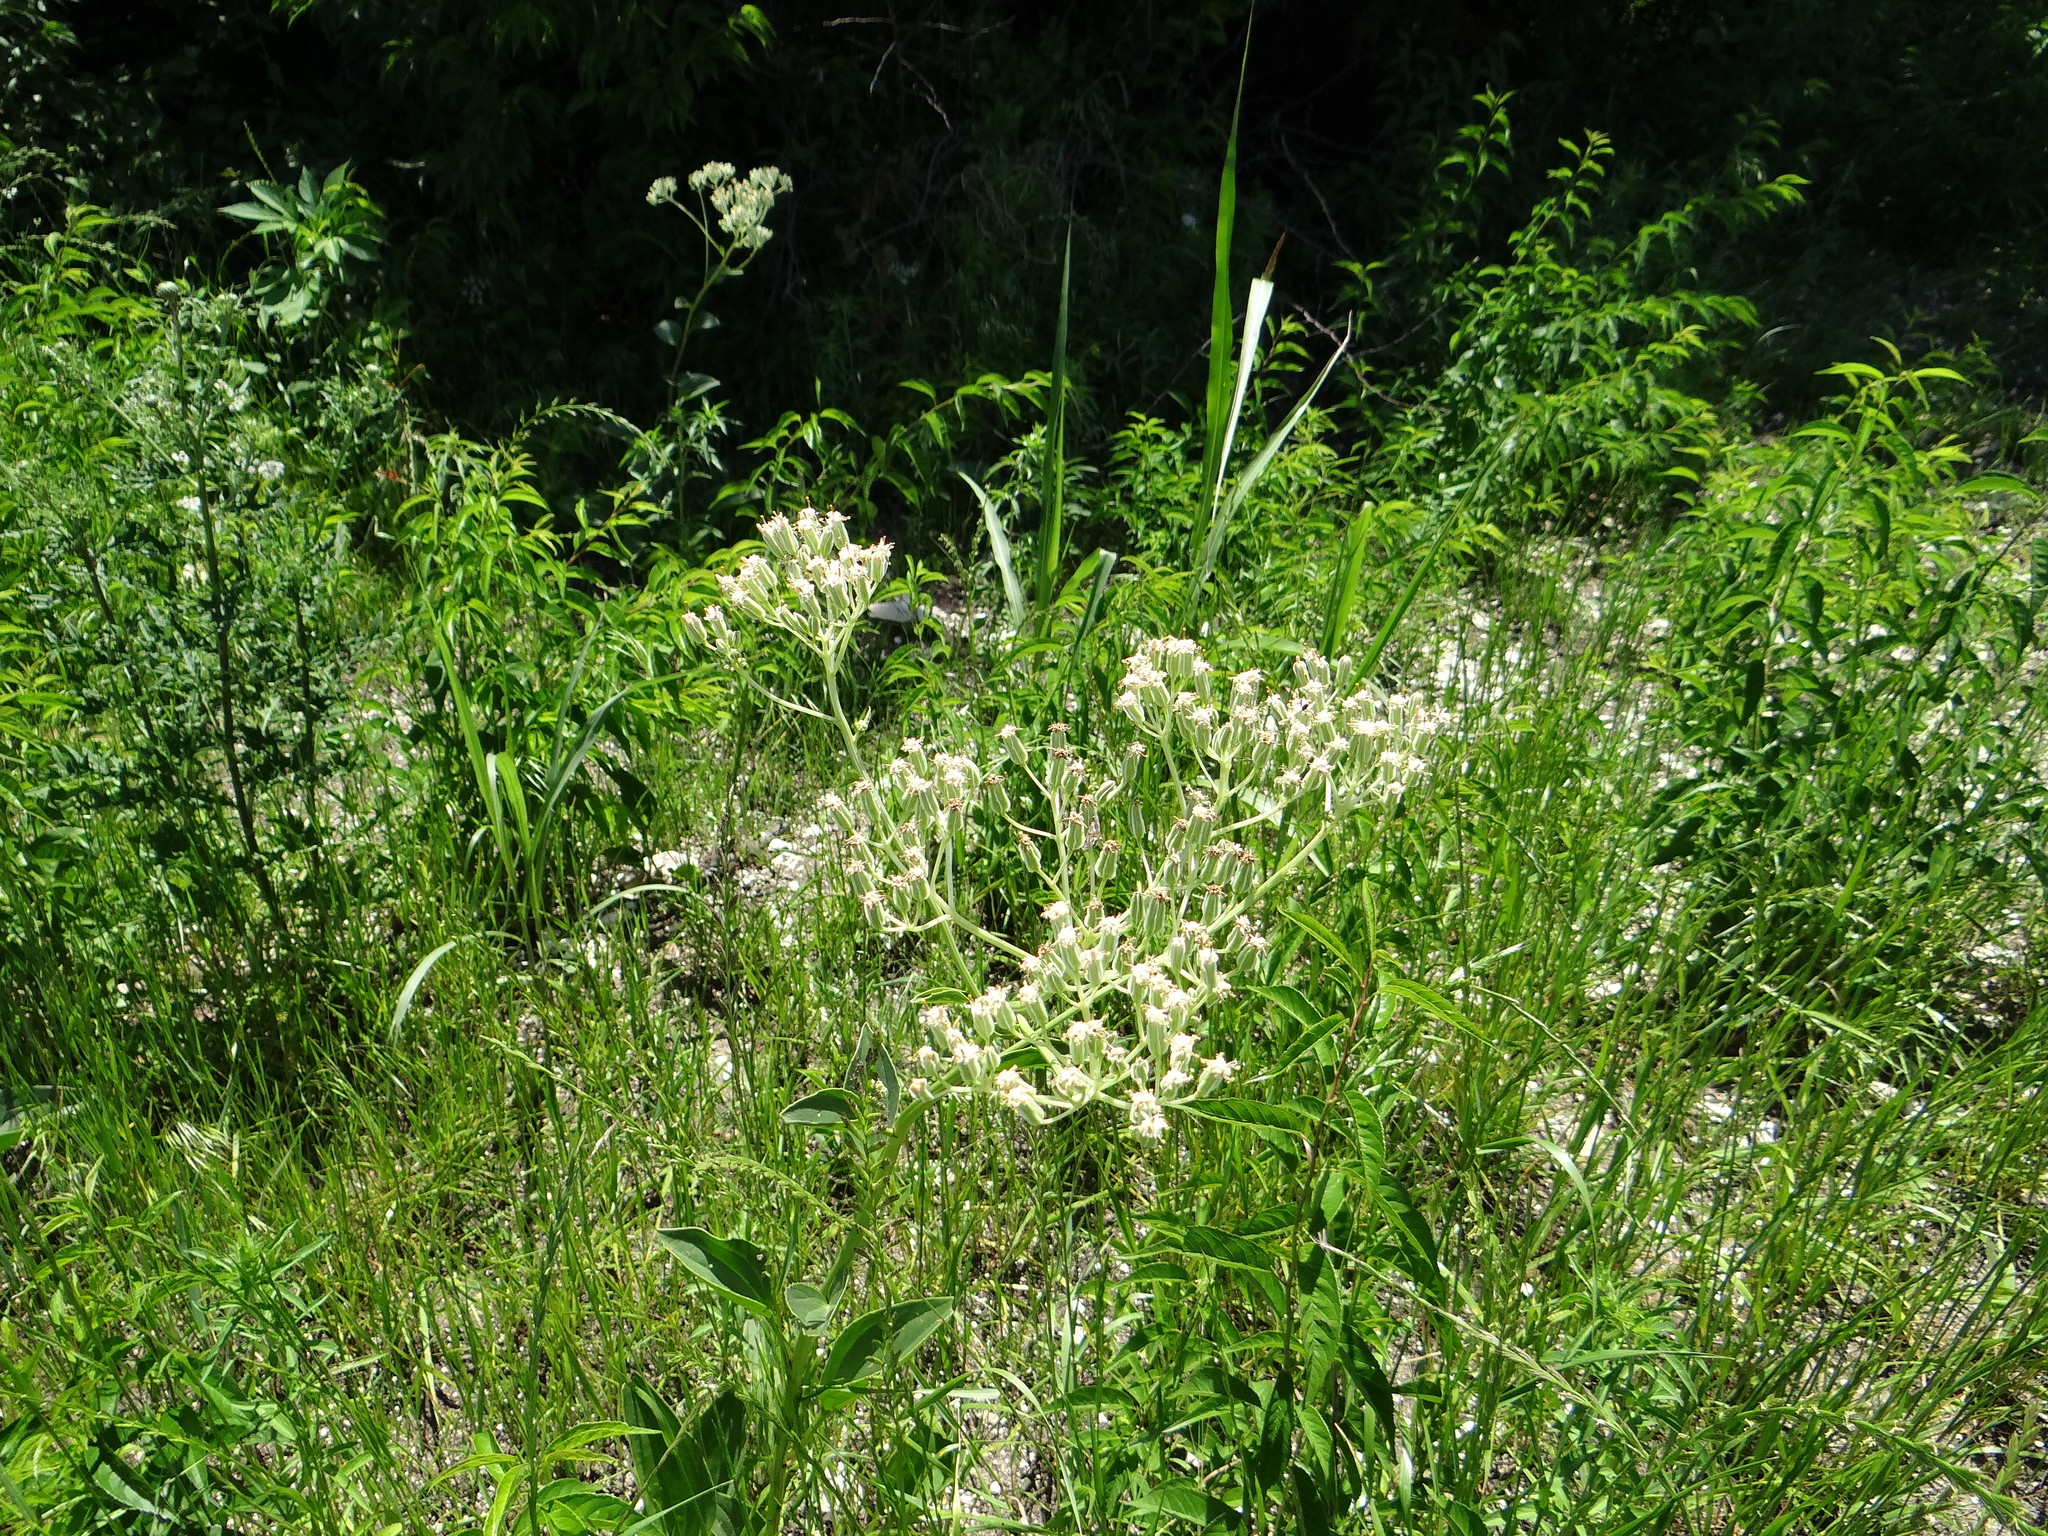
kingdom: Plantae
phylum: Tracheophyta
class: Magnoliopsida
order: Asterales
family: Asteraceae
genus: Arnoglossum
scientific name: Arnoglossum plantagineum
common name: Groove-stemmed indian-plantain
